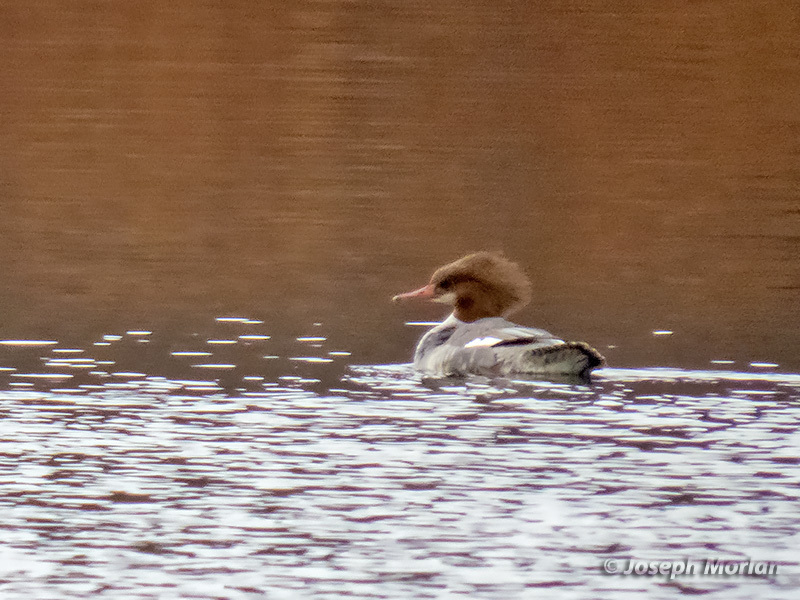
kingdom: Animalia
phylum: Chordata
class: Aves
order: Anseriformes
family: Anatidae
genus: Mergus
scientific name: Mergus merganser
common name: Common merganser
